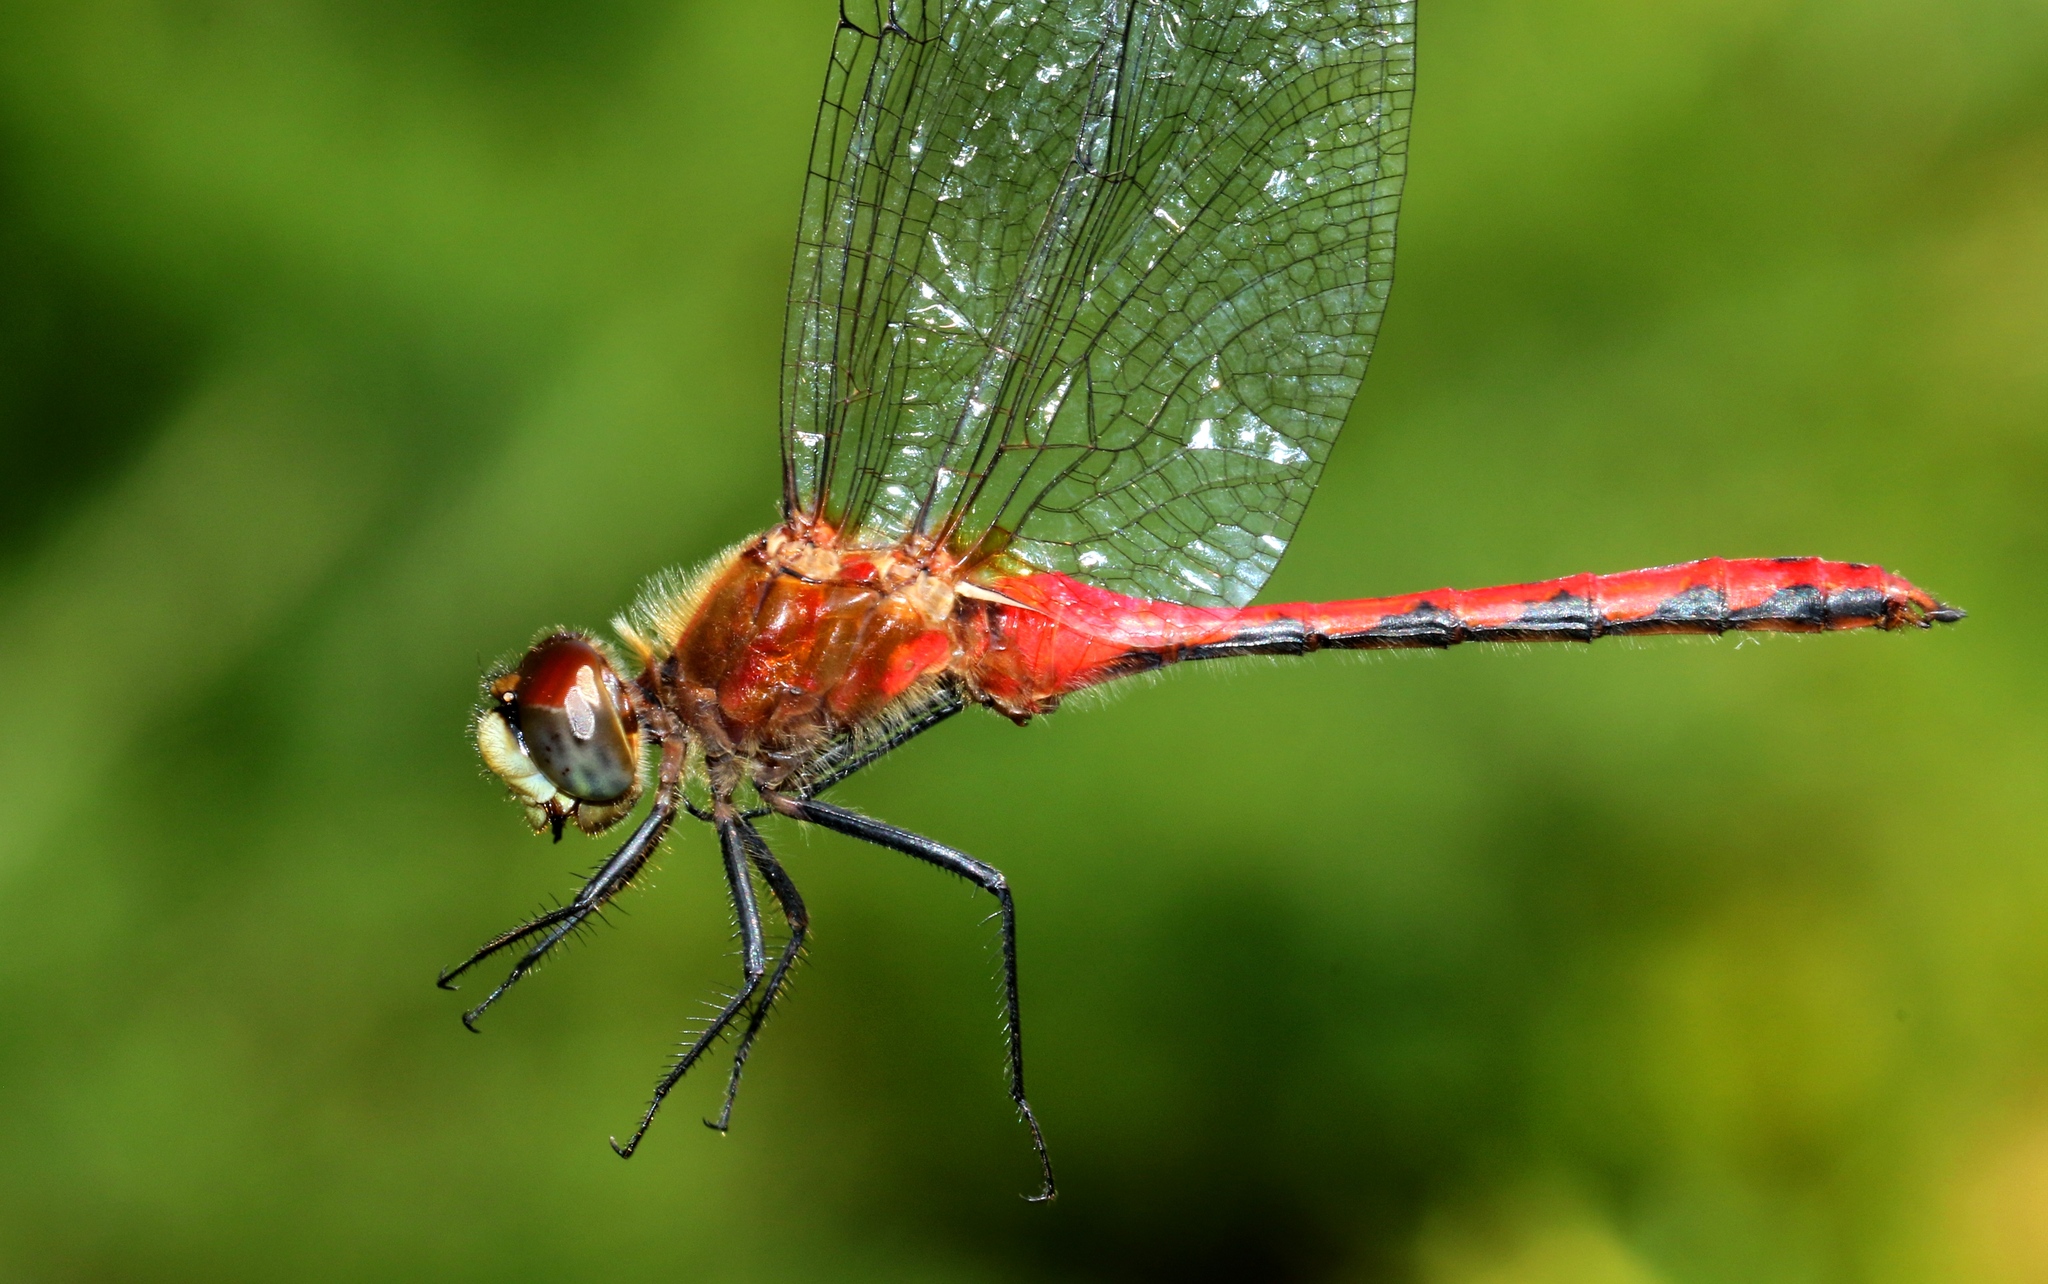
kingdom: Animalia
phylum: Arthropoda
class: Insecta
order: Odonata
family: Libellulidae
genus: Sympetrum
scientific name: Sympetrum obtrusum
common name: White-faced meadowhawk
